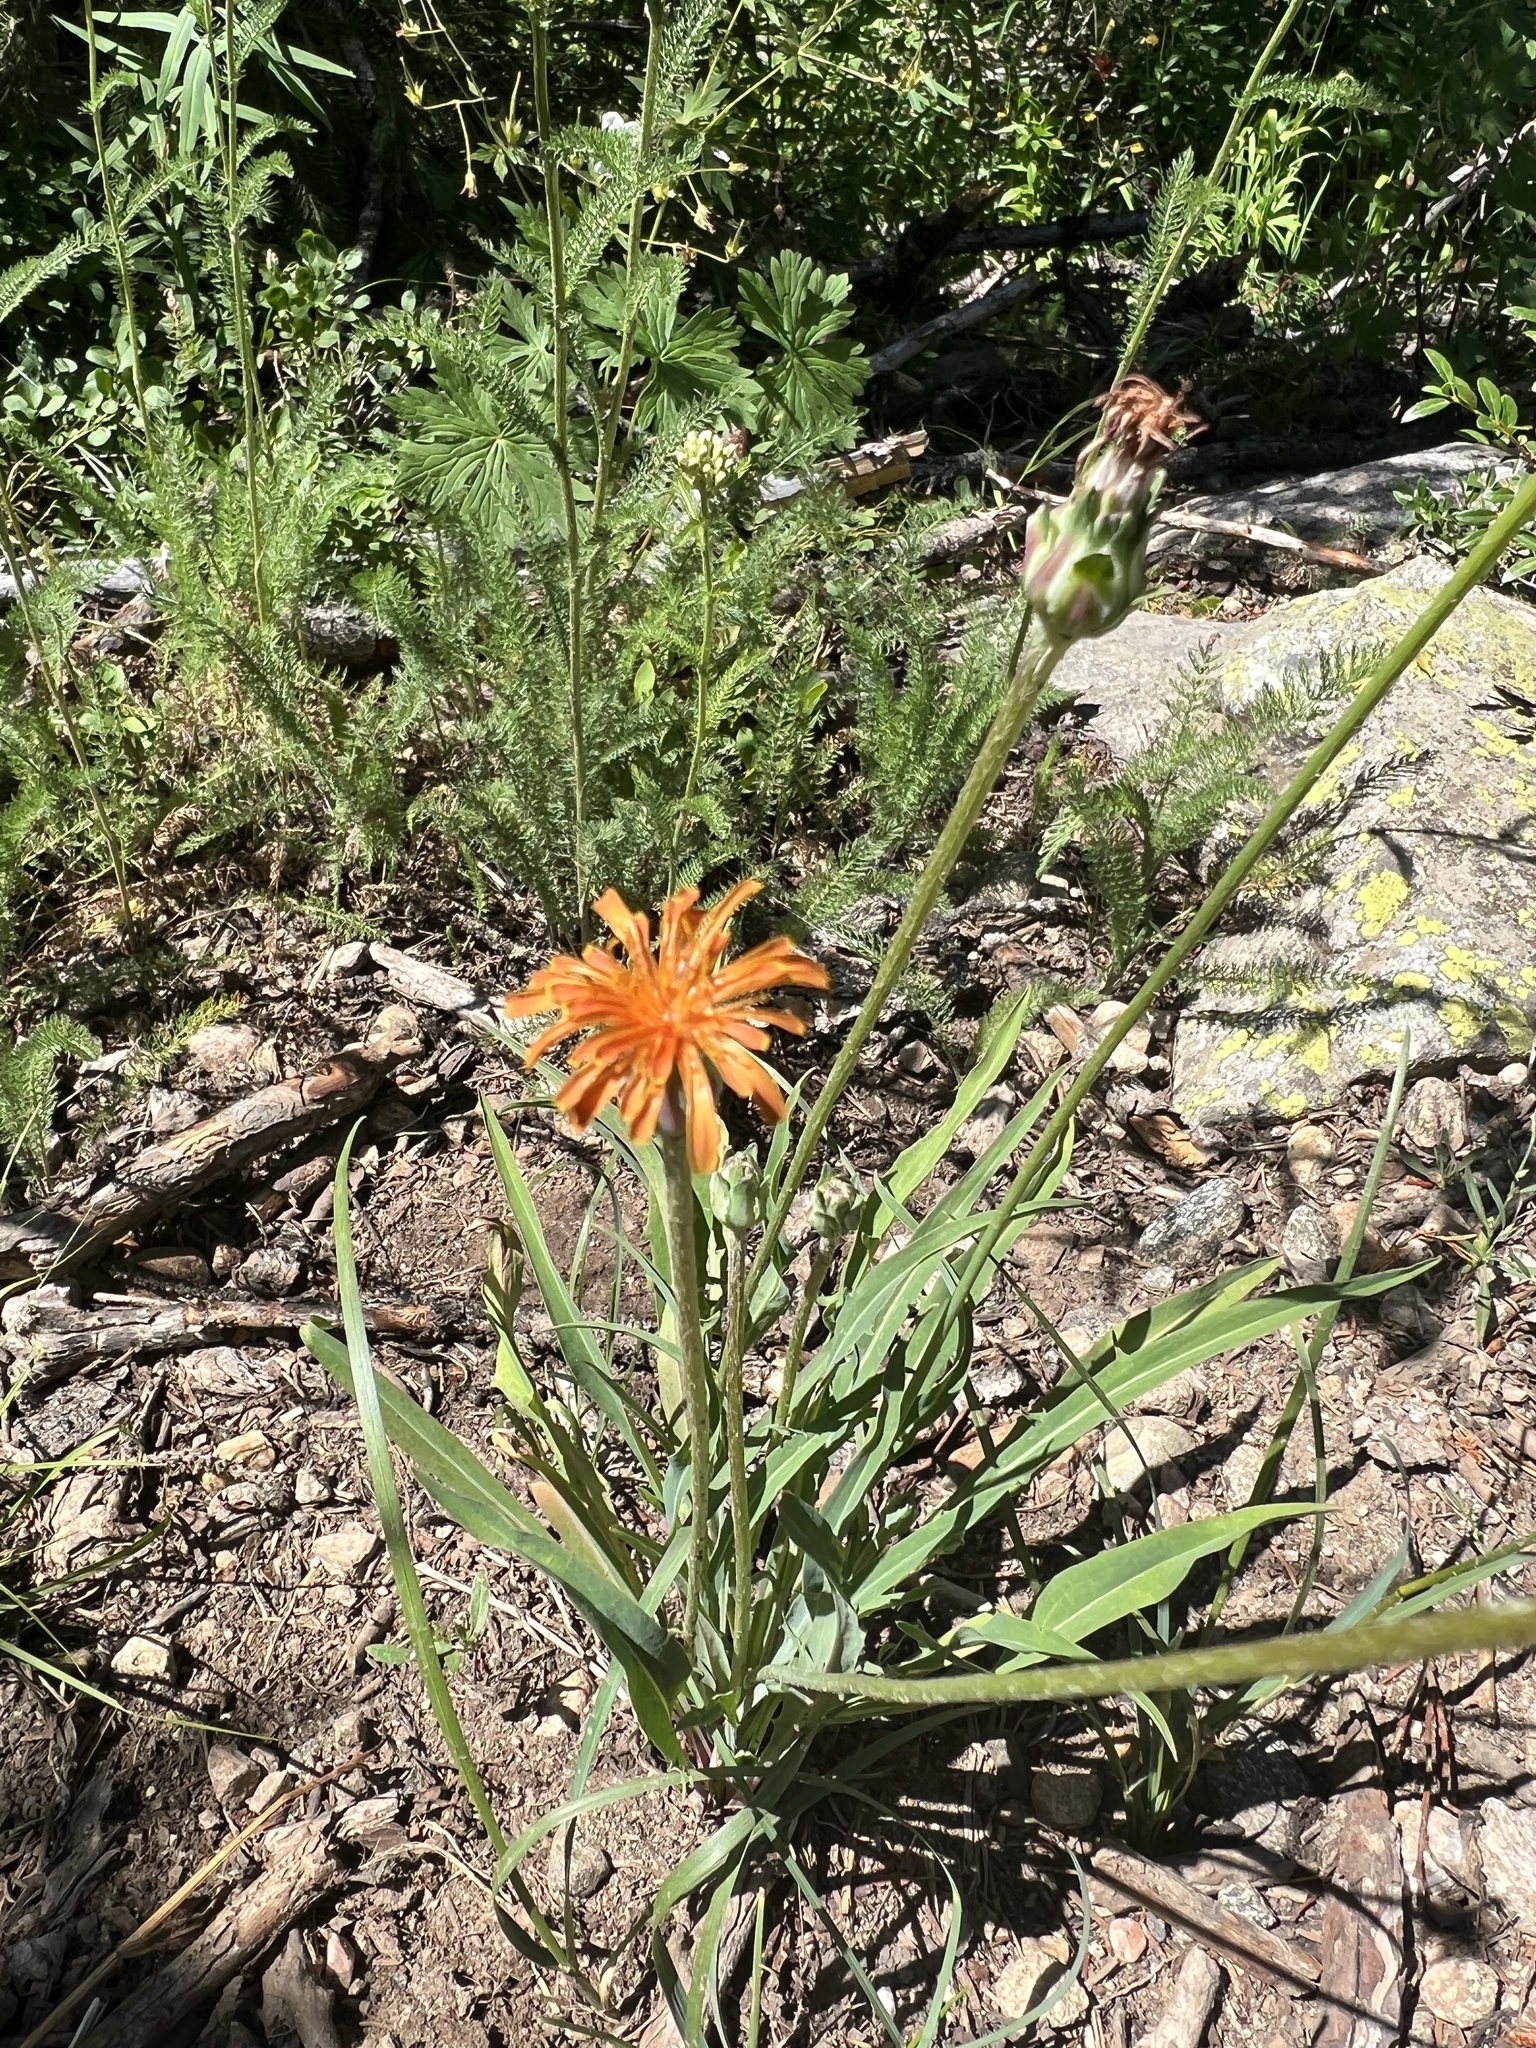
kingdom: Plantae
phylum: Tracheophyta
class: Magnoliopsida
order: Asterales
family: Asteraceae
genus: Agoseris
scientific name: Agoseris aurantiaca
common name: Mountain agoseris
